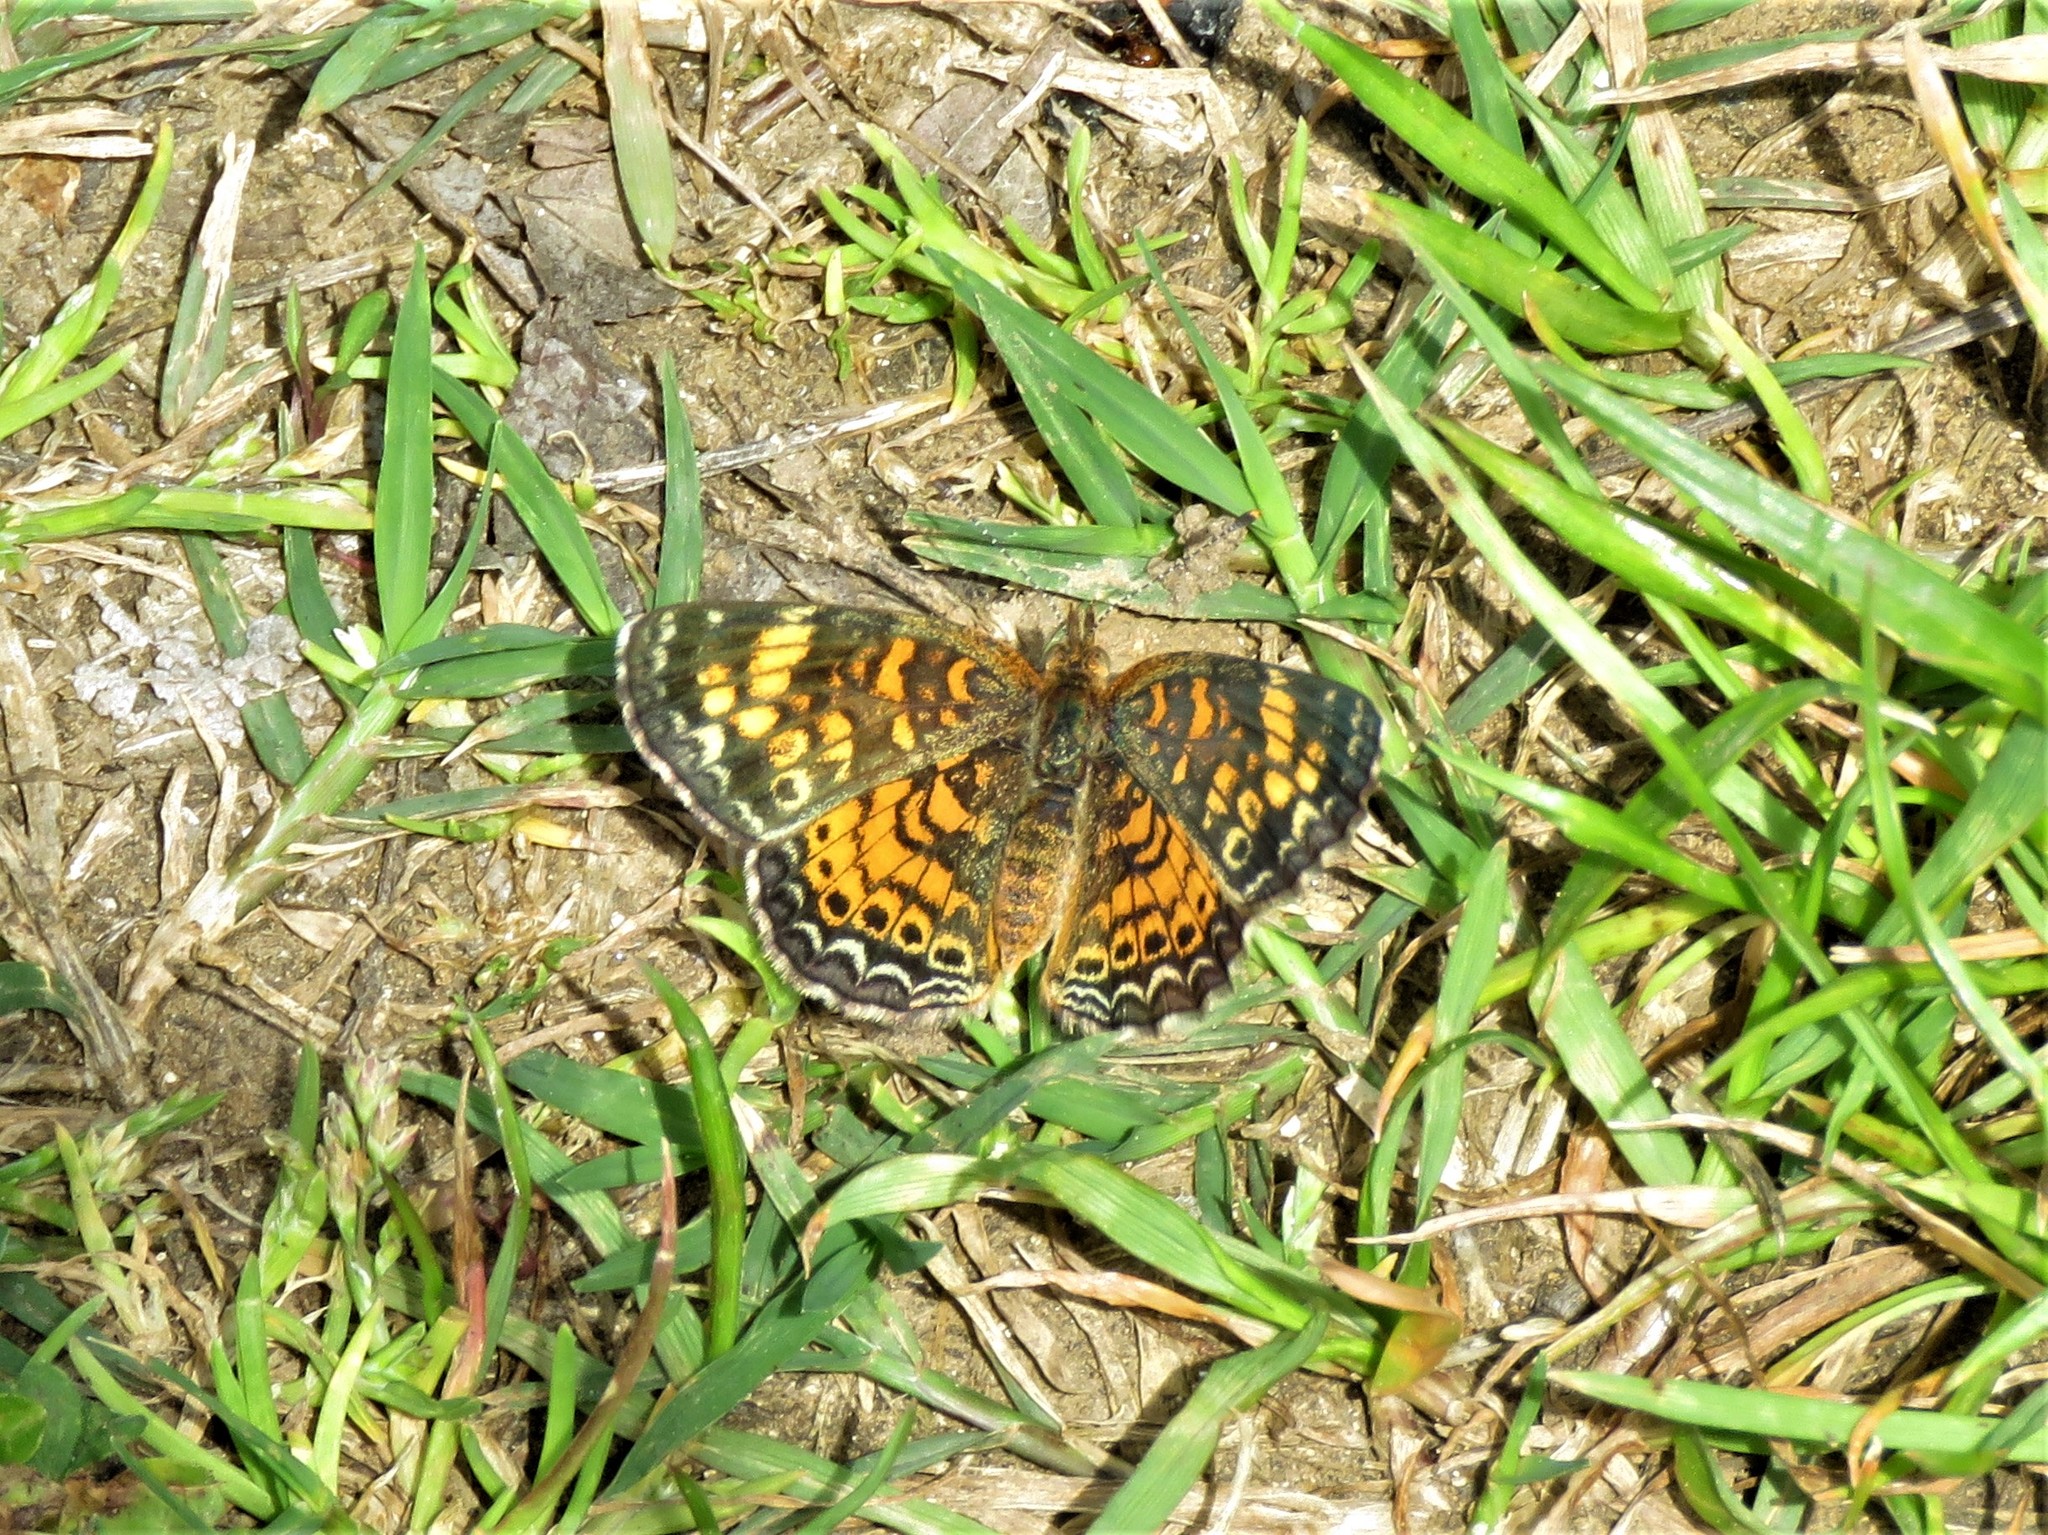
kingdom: Animalia
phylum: Arthropoda
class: Insecta
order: Lepidoptera
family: Nymphalidae
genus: Phyciodes
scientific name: Phyciodes tharos
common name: Pearl crescent
